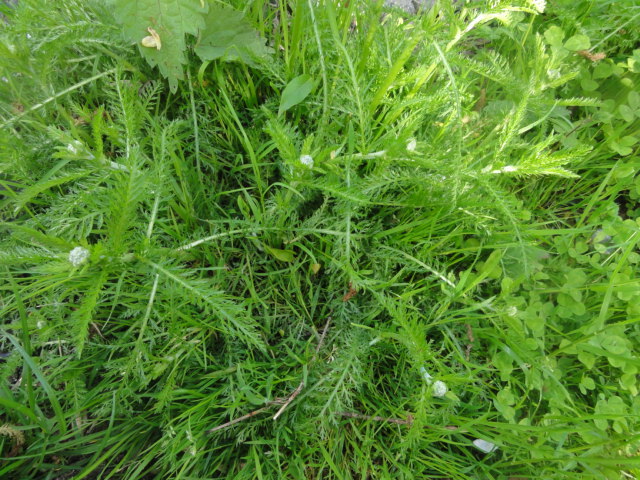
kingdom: Plantae
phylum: Tracheophyta
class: Magnoliopsida
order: Asterales
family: Asteraceae
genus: Achillea
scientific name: Achillea millefolium
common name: Yarrow
